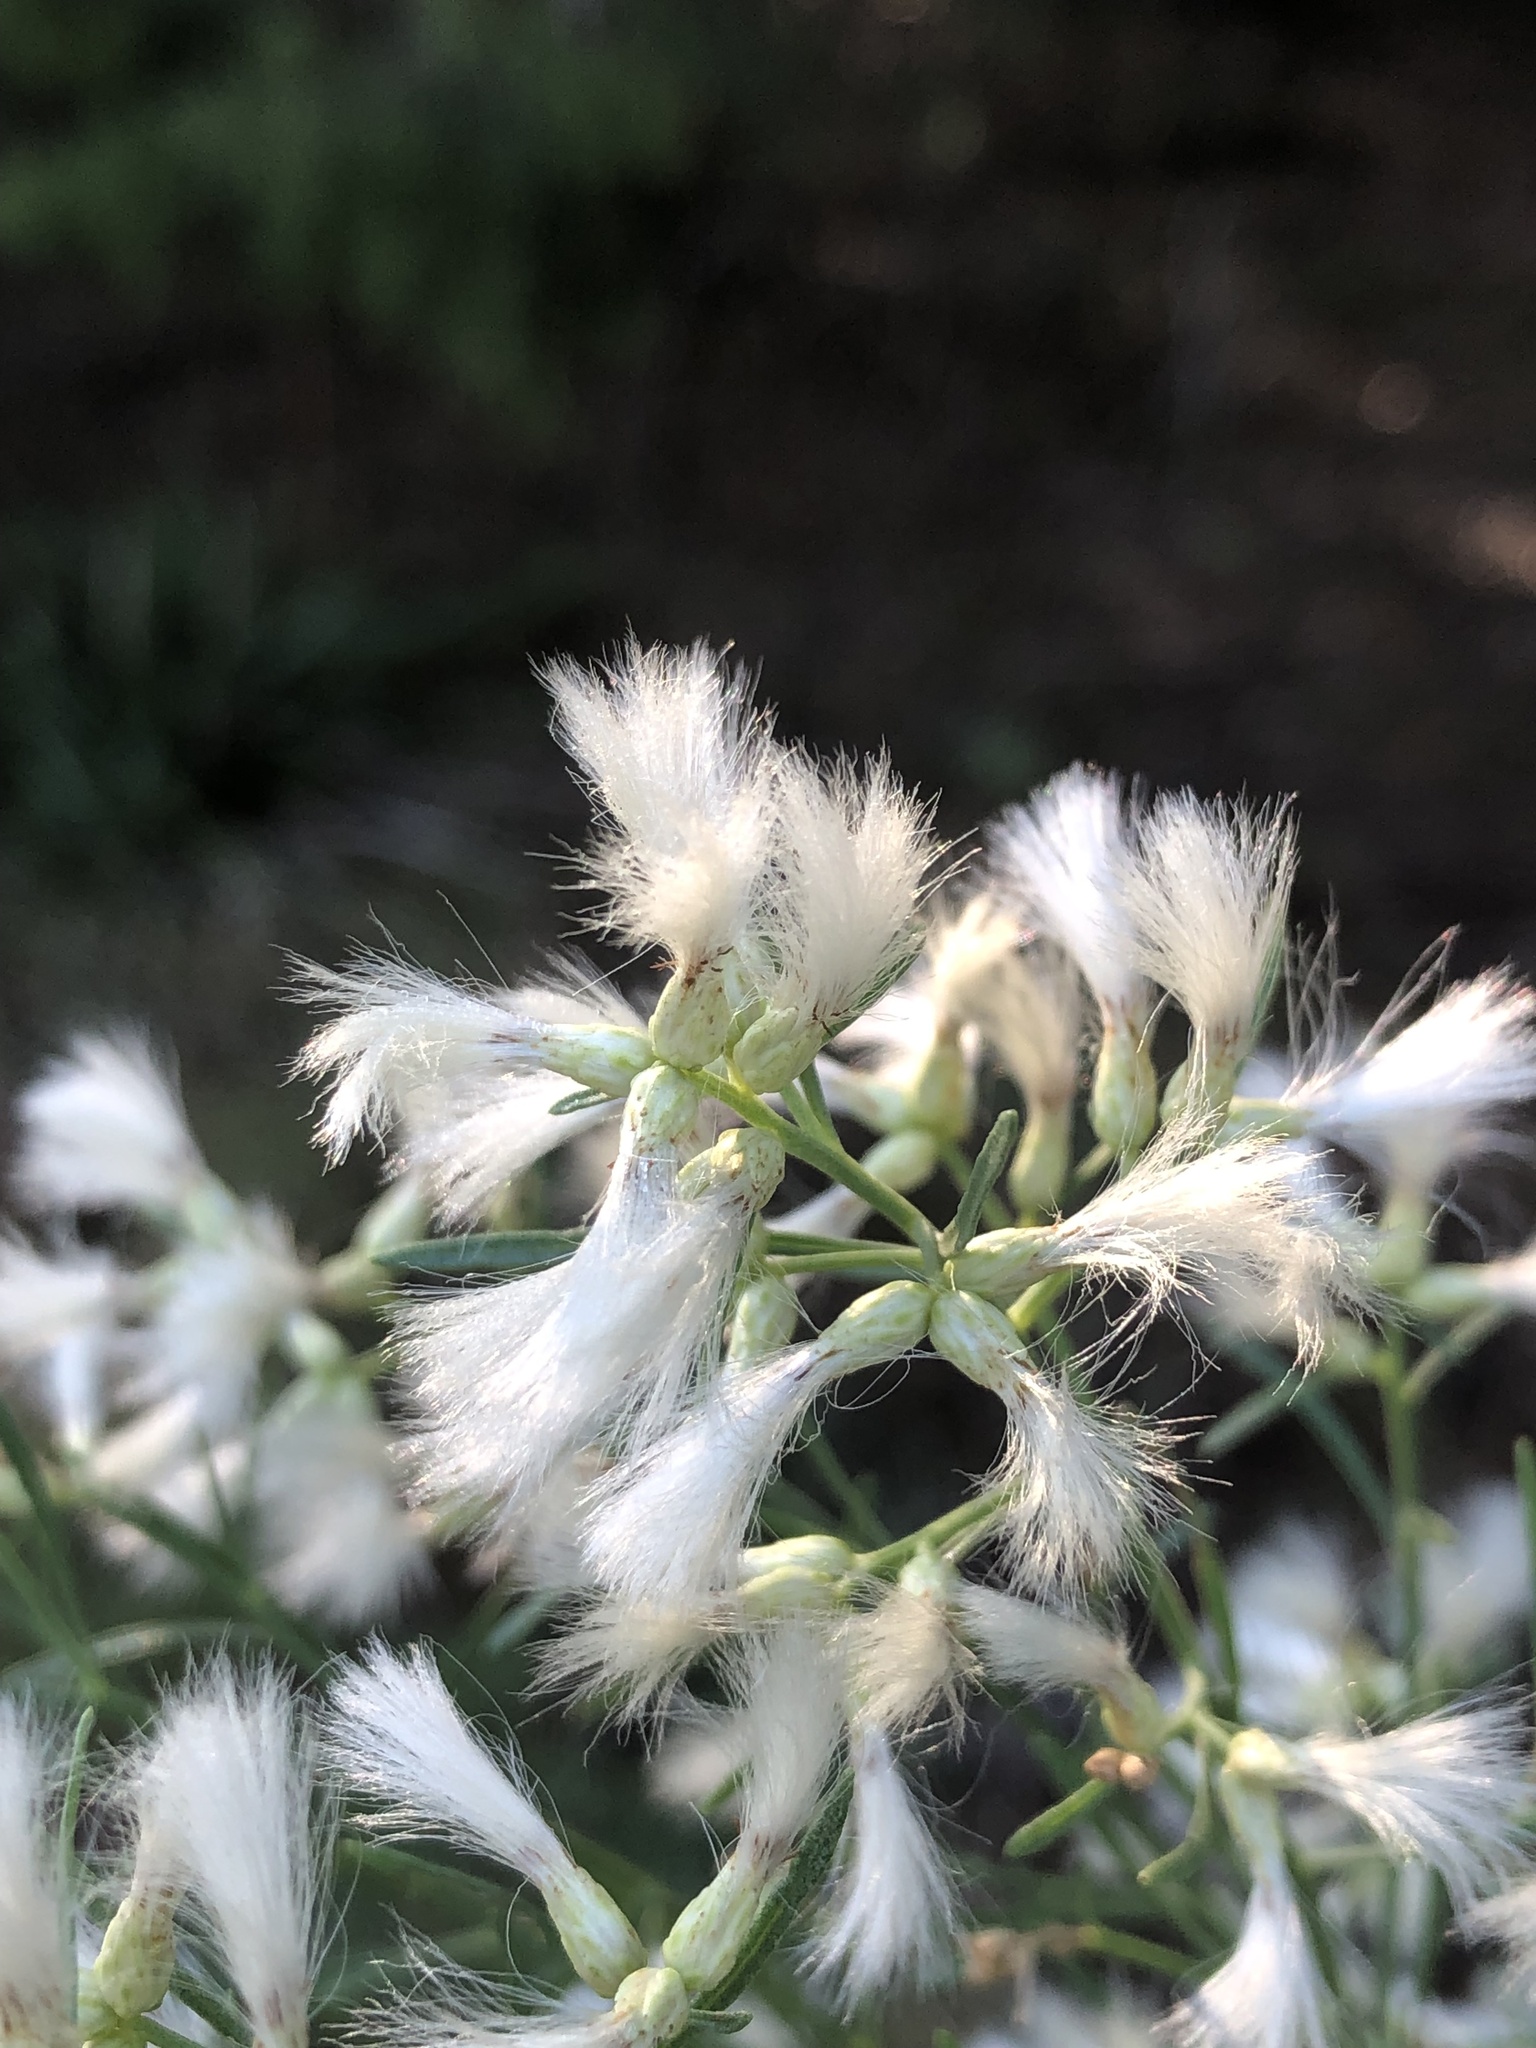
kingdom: Plantae
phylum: Tracheophyta
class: Magnoliopsida
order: Asterales
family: Asteraceae
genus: Baccharis
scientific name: Baccharis neglecta
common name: Roosevelt-weed
